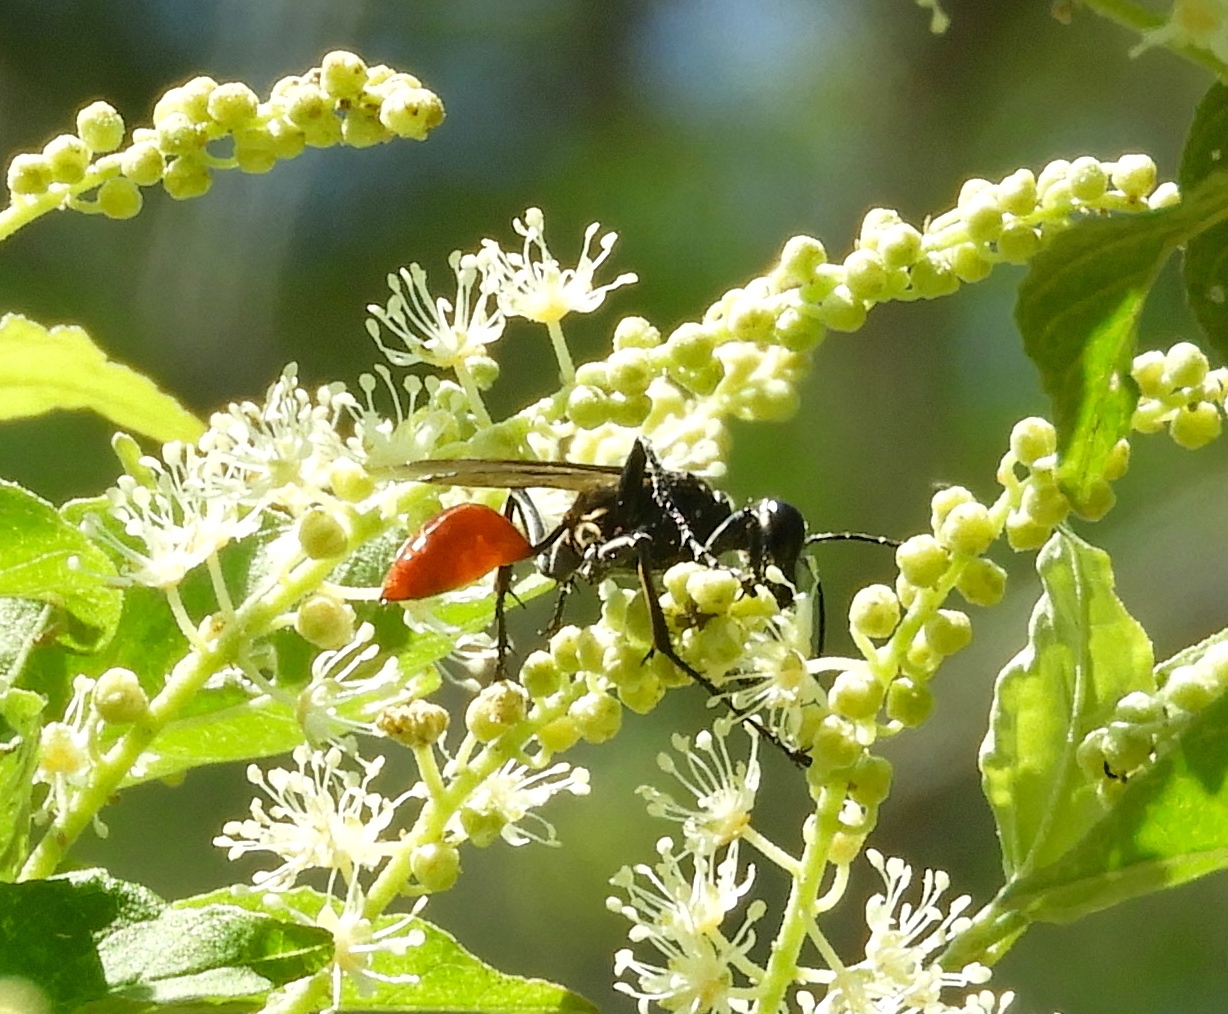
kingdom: Animalia
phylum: Arthropoda
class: Insecta
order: Hymenoptera
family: Sphecidae
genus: Prionyx
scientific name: Prionyx
